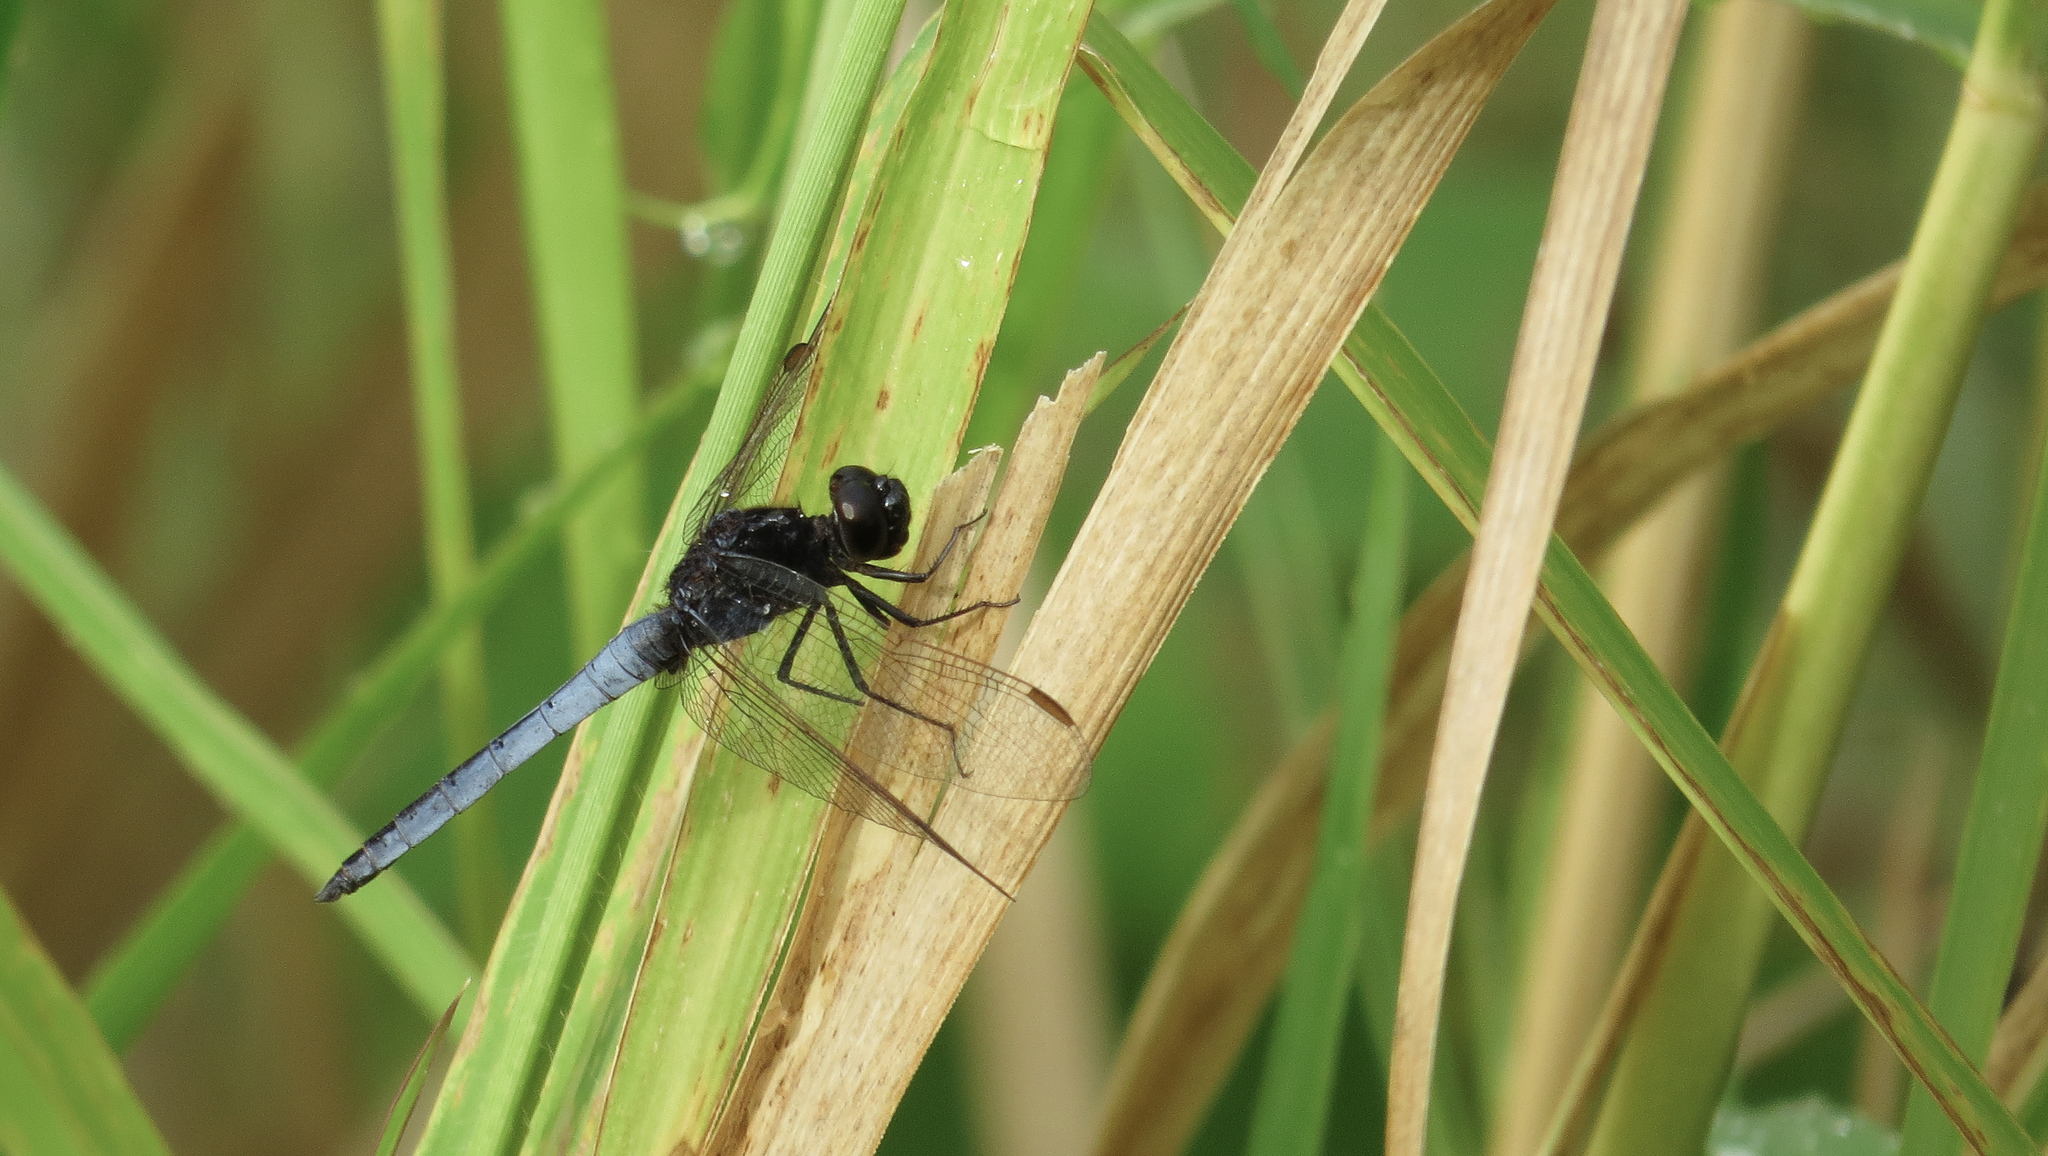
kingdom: Animalia
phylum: Arthropoda
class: Insecta
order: Odonata
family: Libellulidae
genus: Crocothemis
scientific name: Crocothemis nigrifrons
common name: Black-headed skimmer
